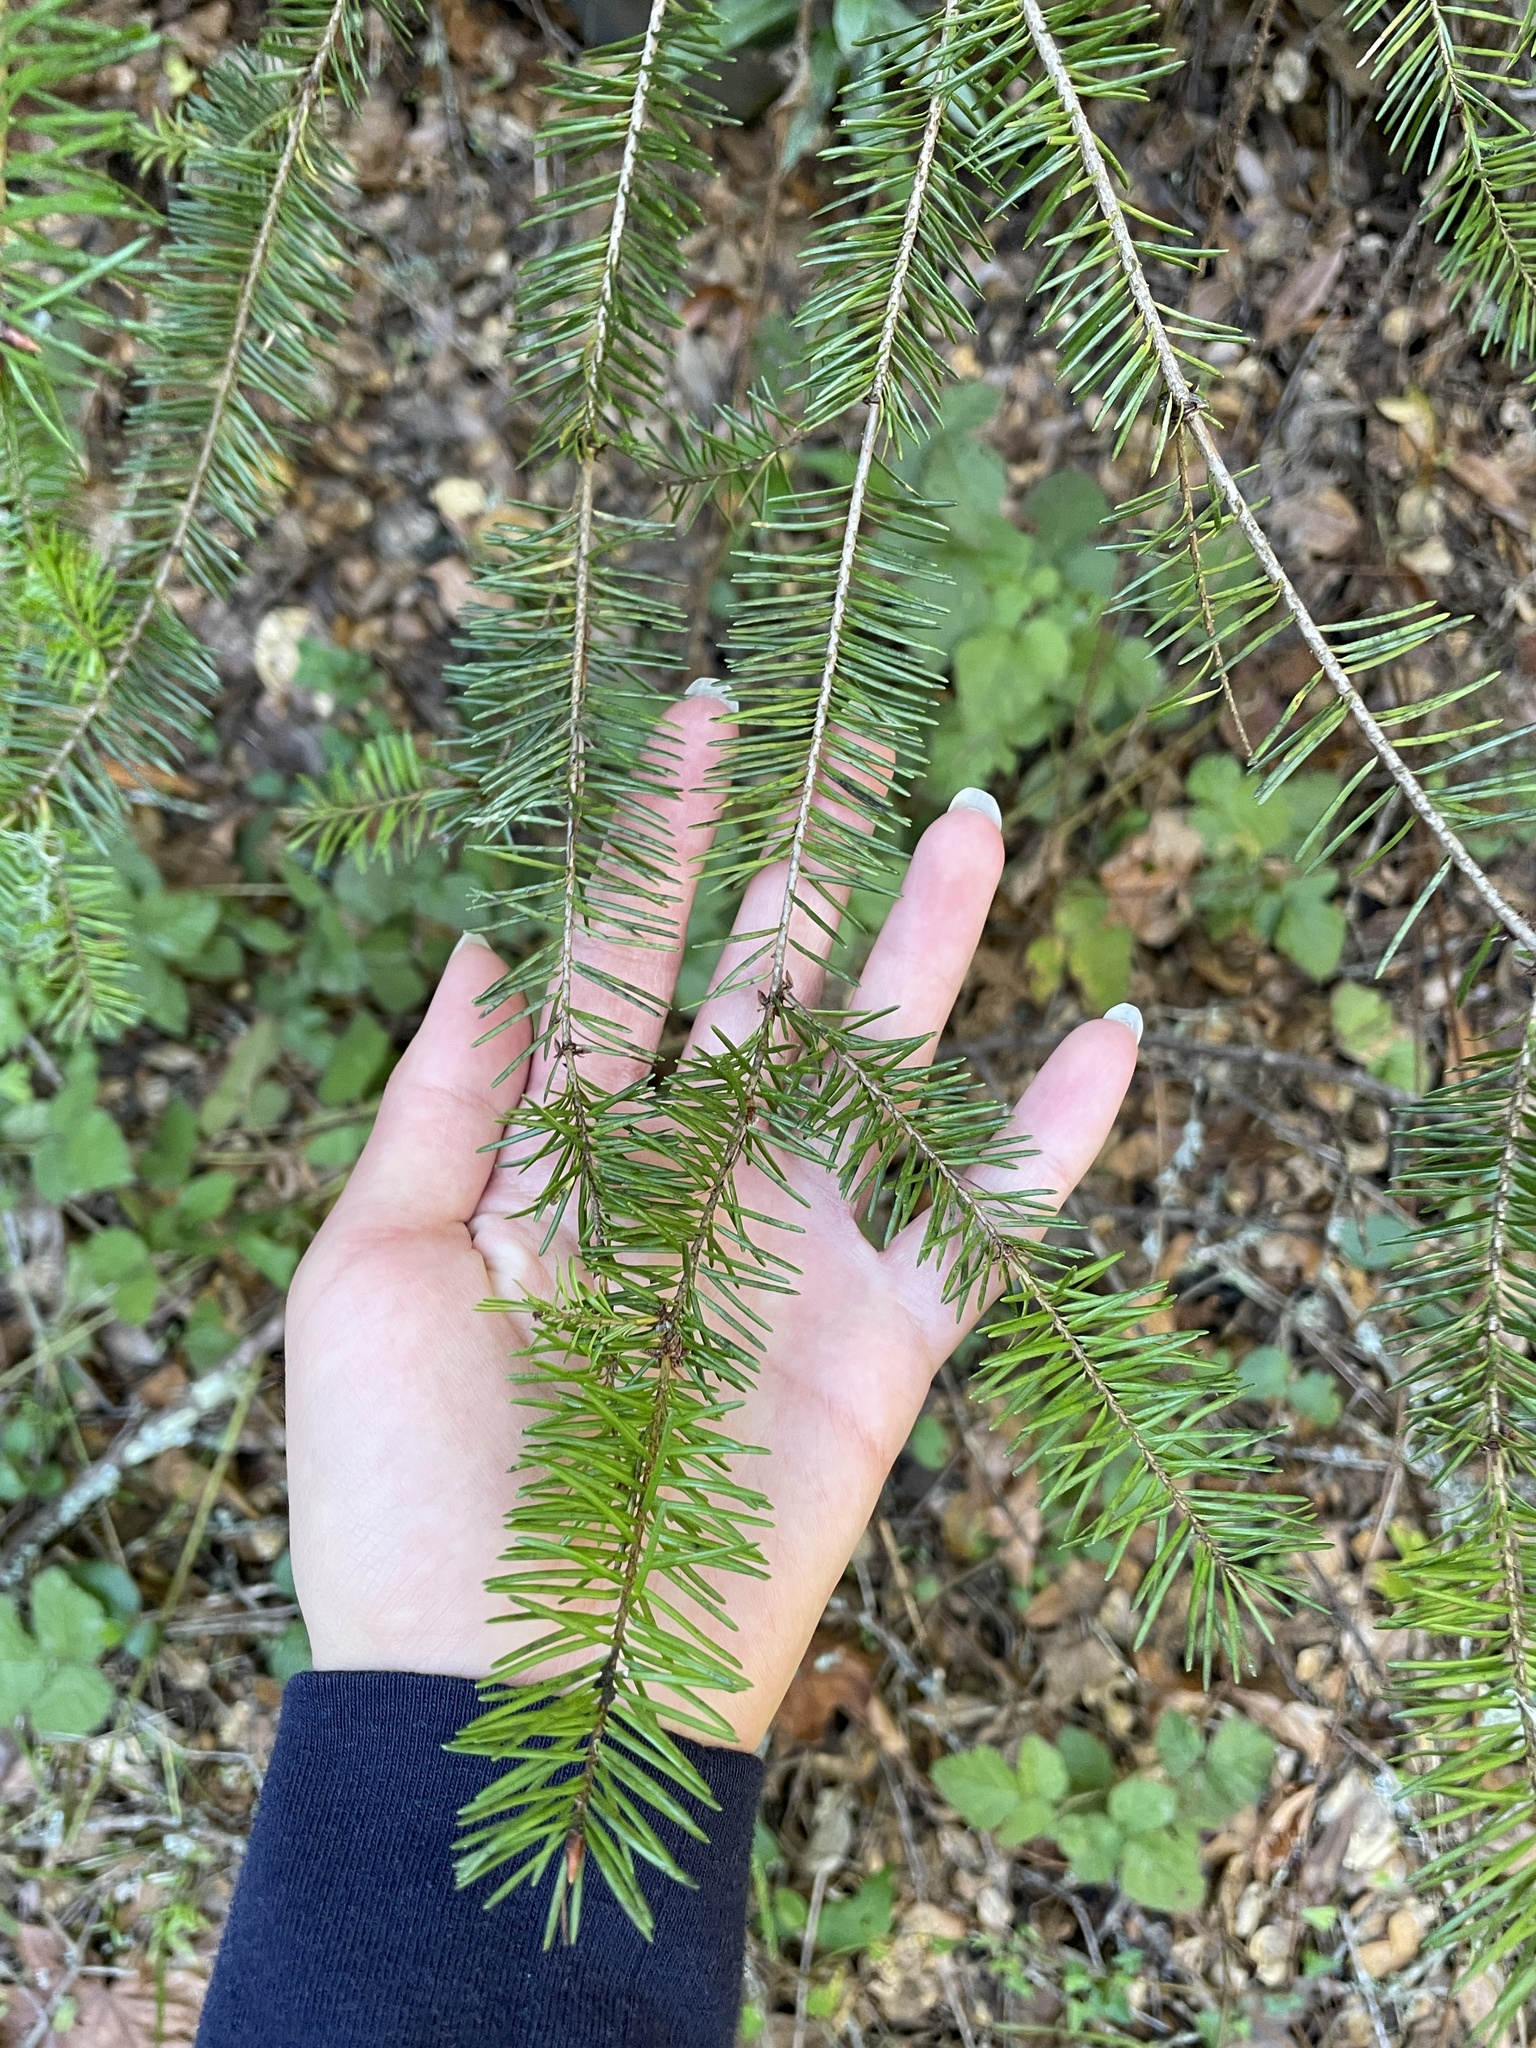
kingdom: Plantae
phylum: Tracheophyta
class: Pinopsida
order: Pinales
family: Pinaceae
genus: Pseudotsuga
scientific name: Pseudotsuga menziesii
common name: Douglas fir
